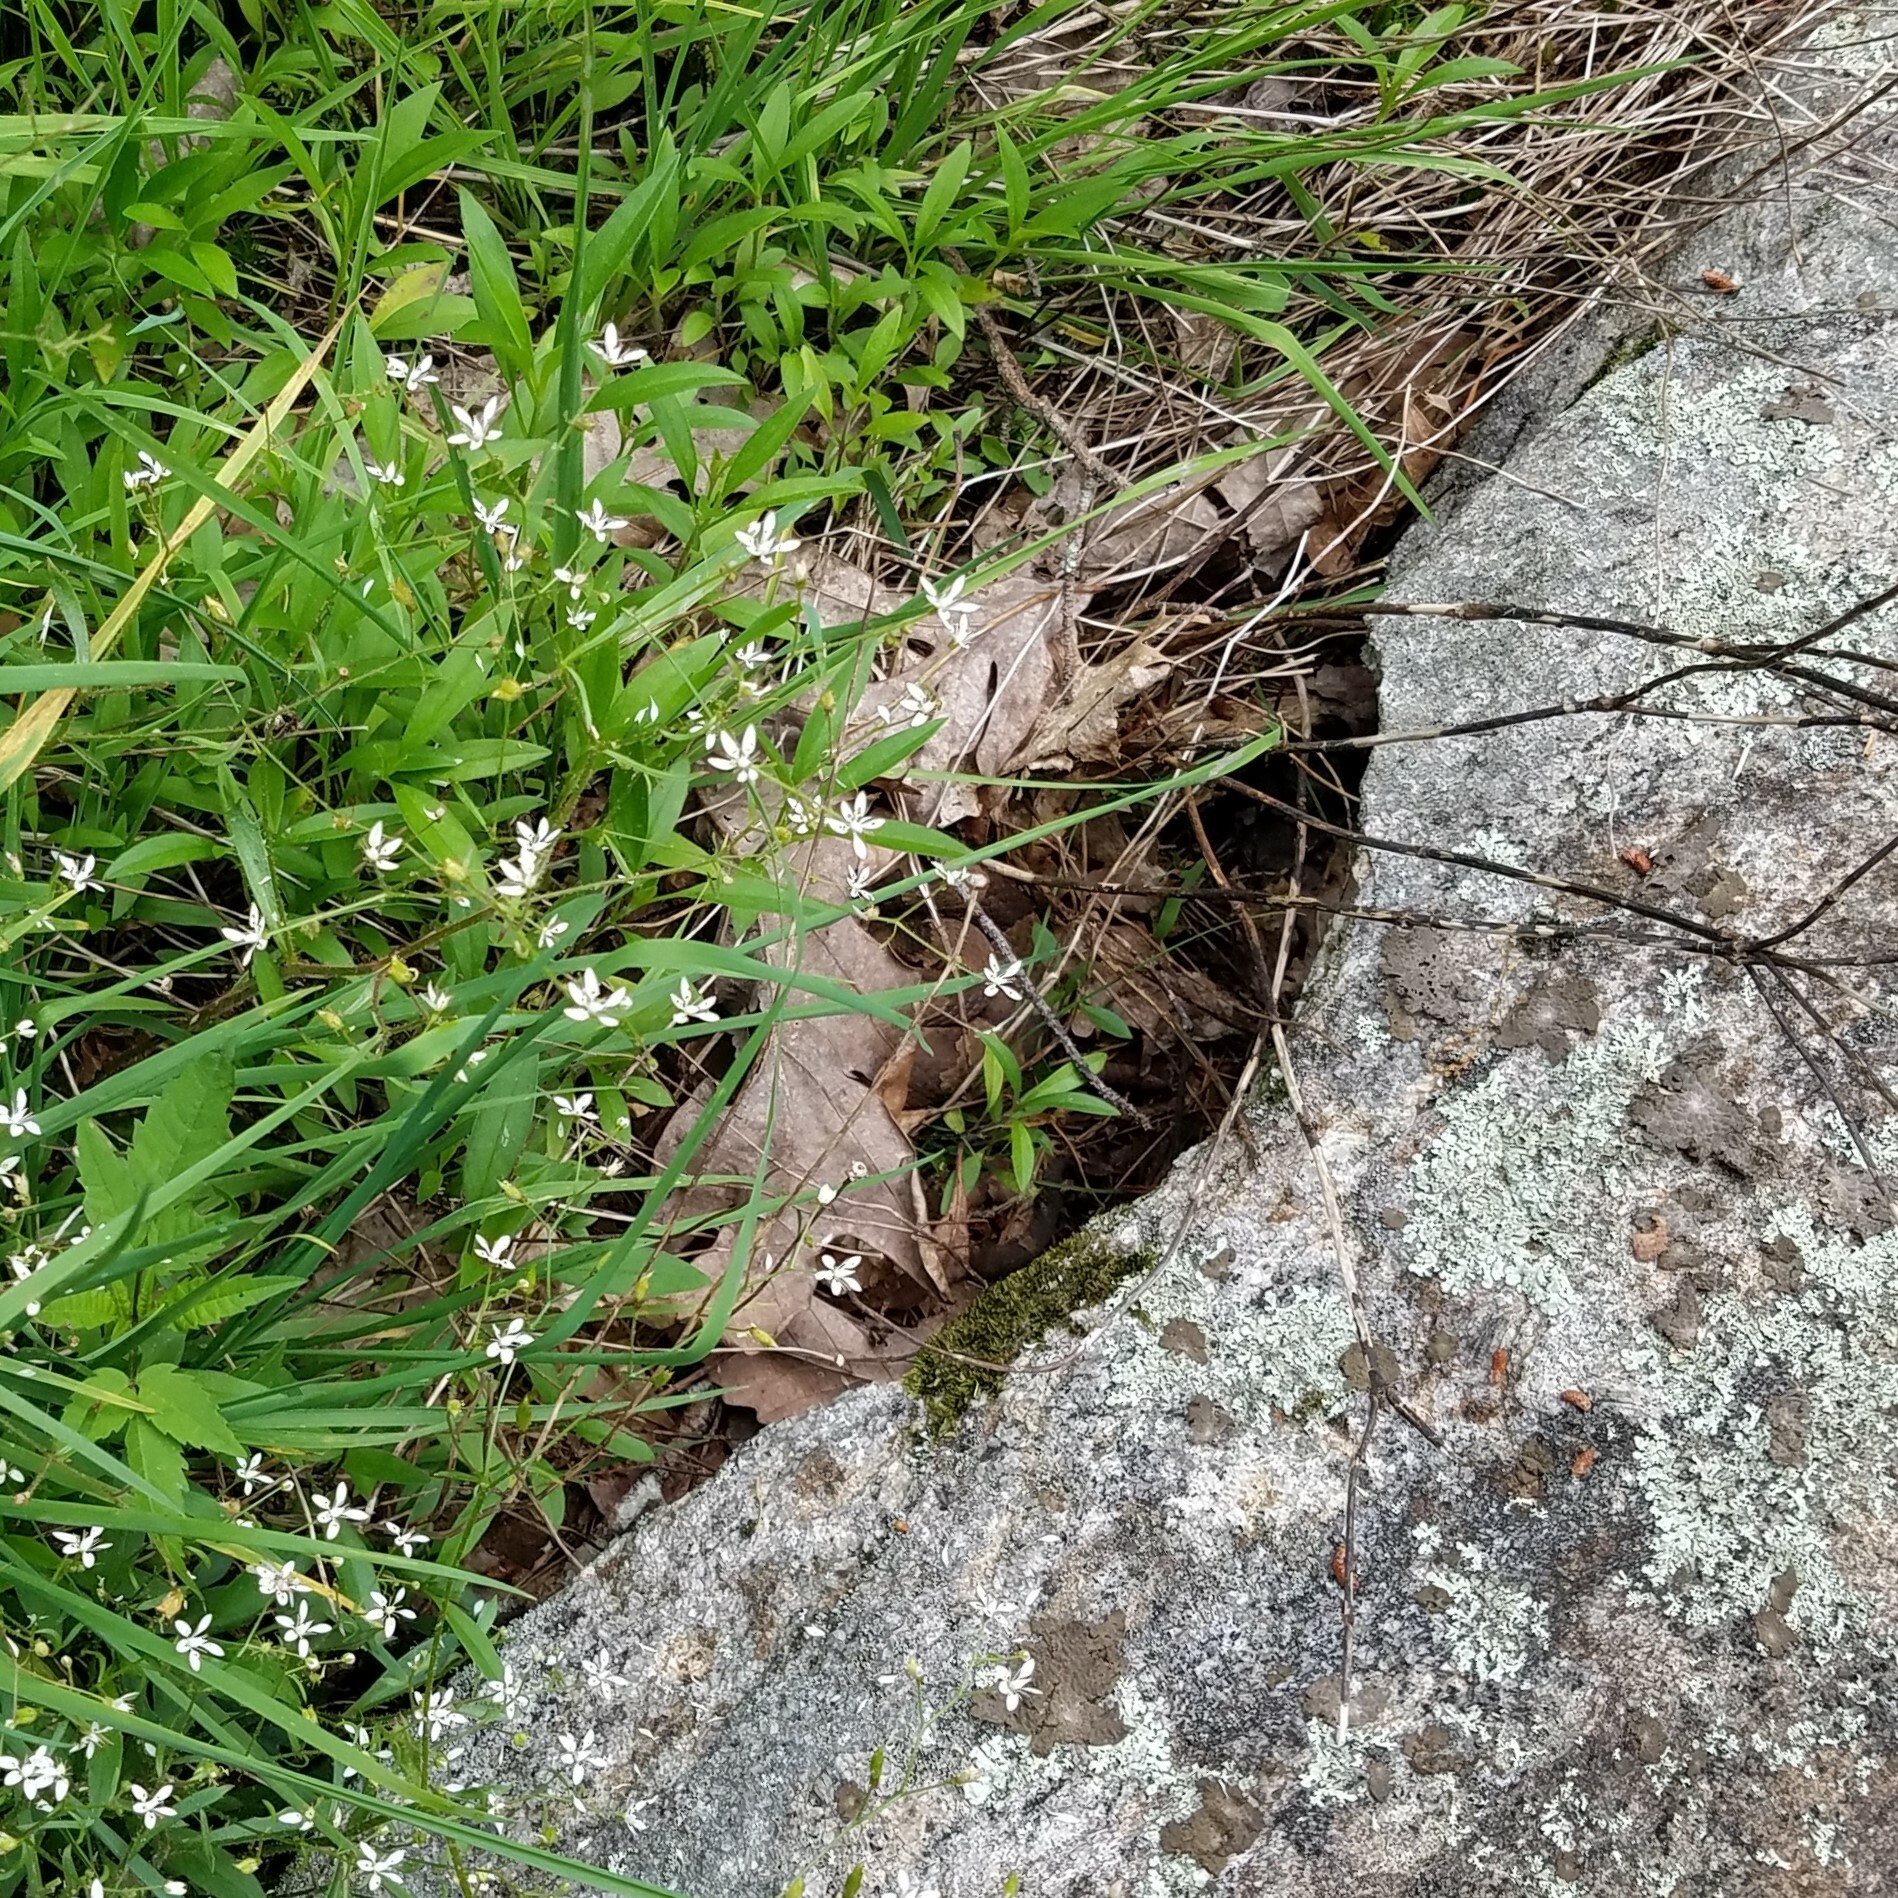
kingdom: Animalia
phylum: Chordata
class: Squamata
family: Viperidae
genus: Agkistrodon
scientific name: Agkistrodon contortrix
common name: Northern copperhead
